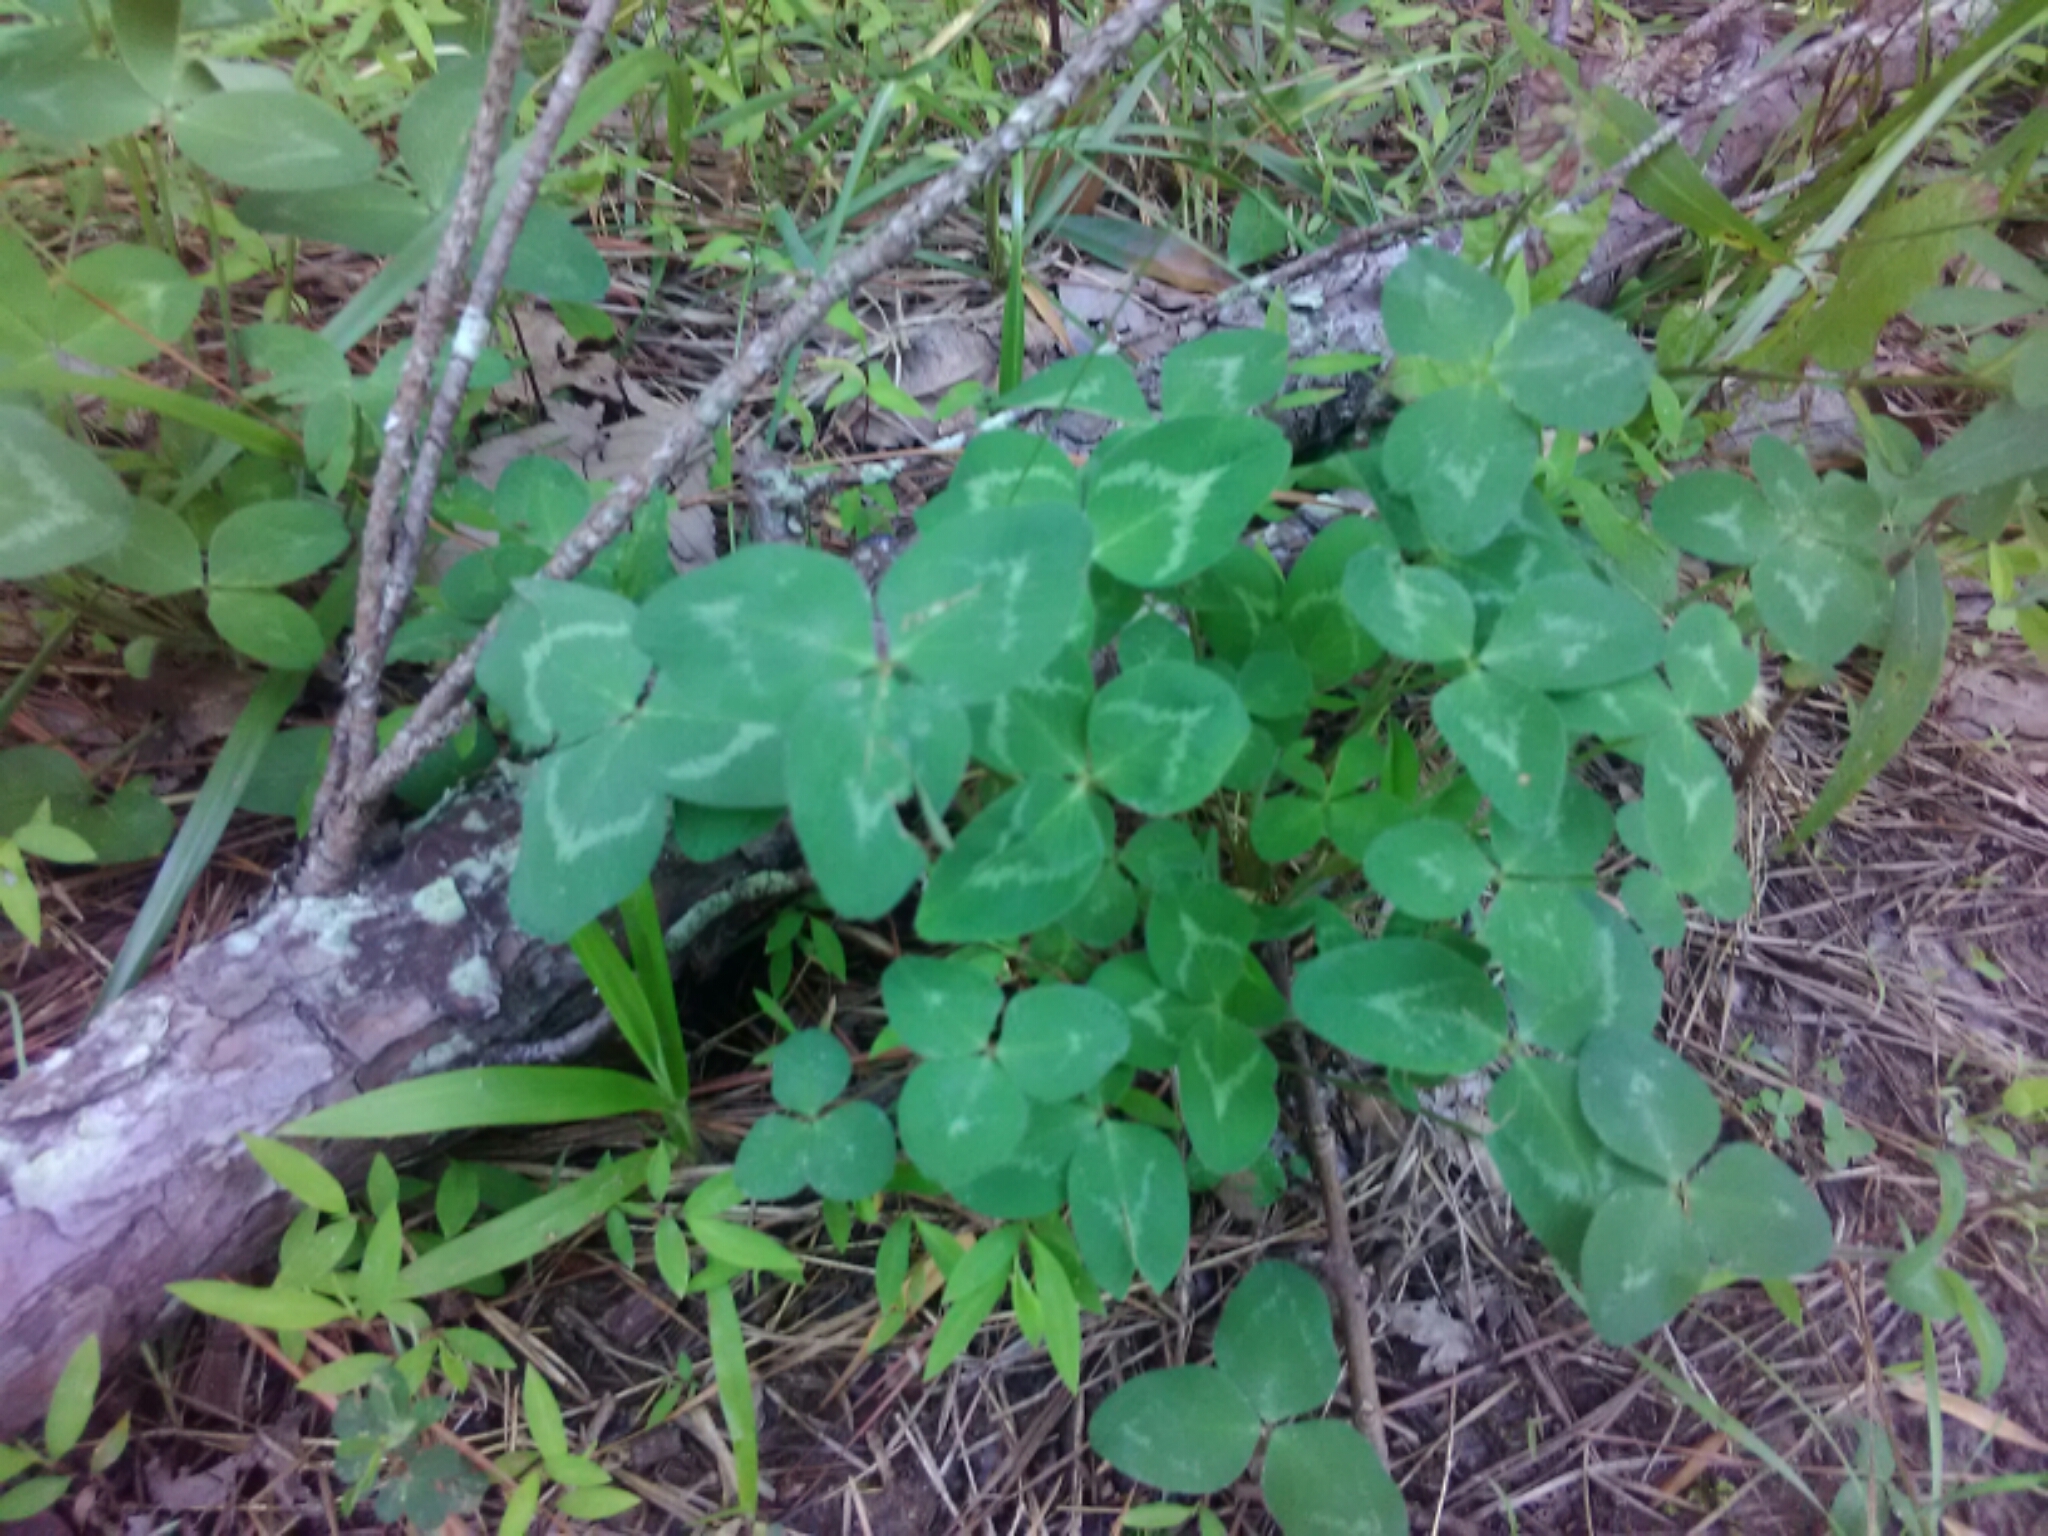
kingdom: Plantae
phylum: Tracheophyta
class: Magnoliopsida
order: Fabales
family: Fabaceae
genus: Trifolium
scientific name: Trifolium pratense
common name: Red clover
